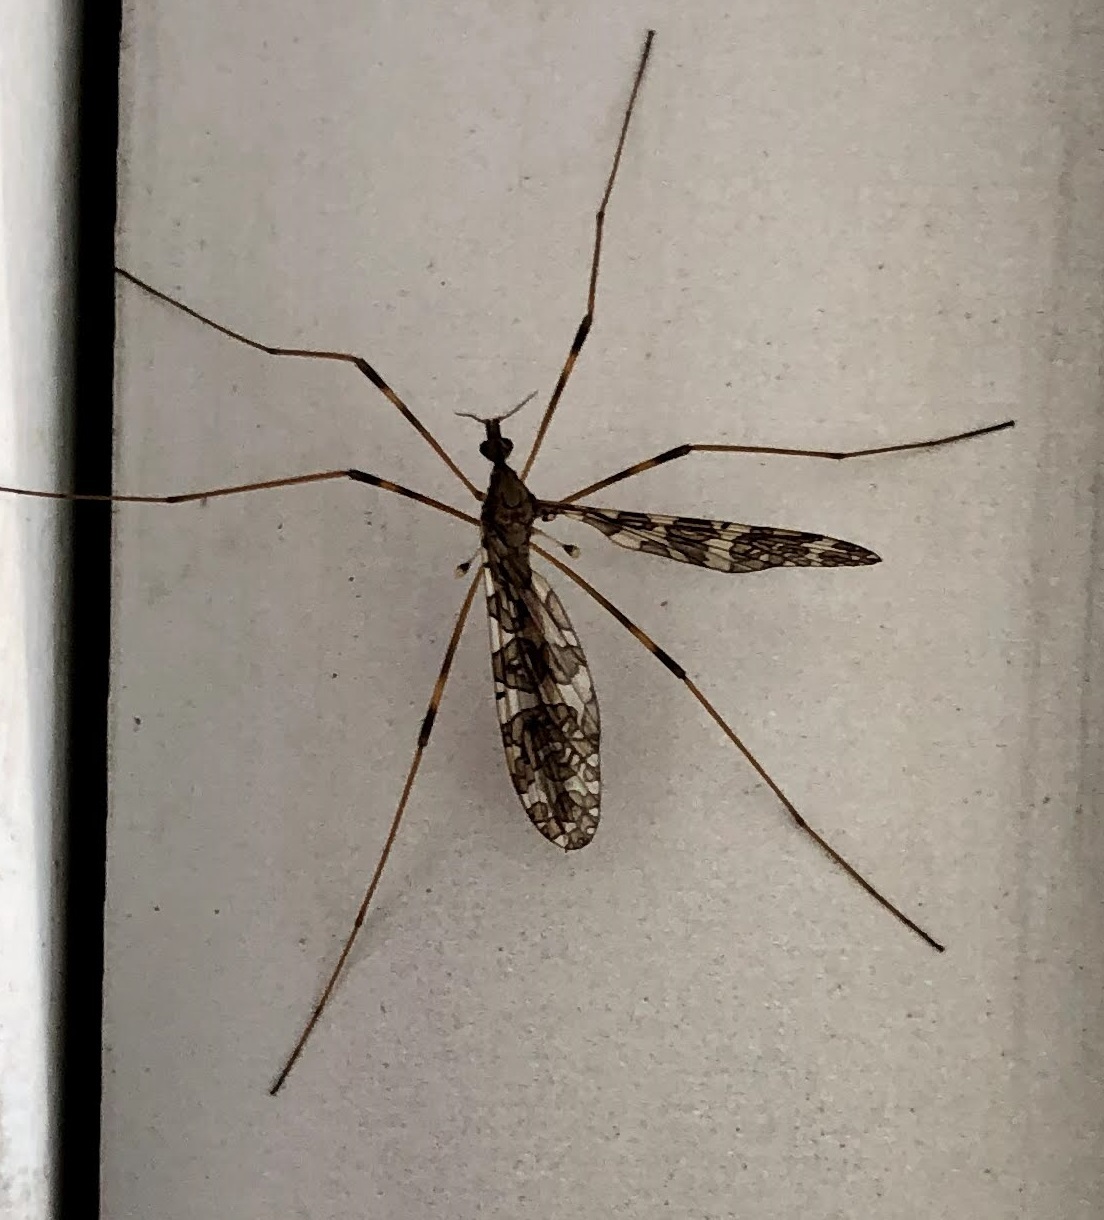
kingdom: Animalia
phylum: Arthropoda
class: Insecta
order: Diptera
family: Limoniidae
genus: Epiphragma
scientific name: Epiphragma fasciapenne
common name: Band-winged crane fly
